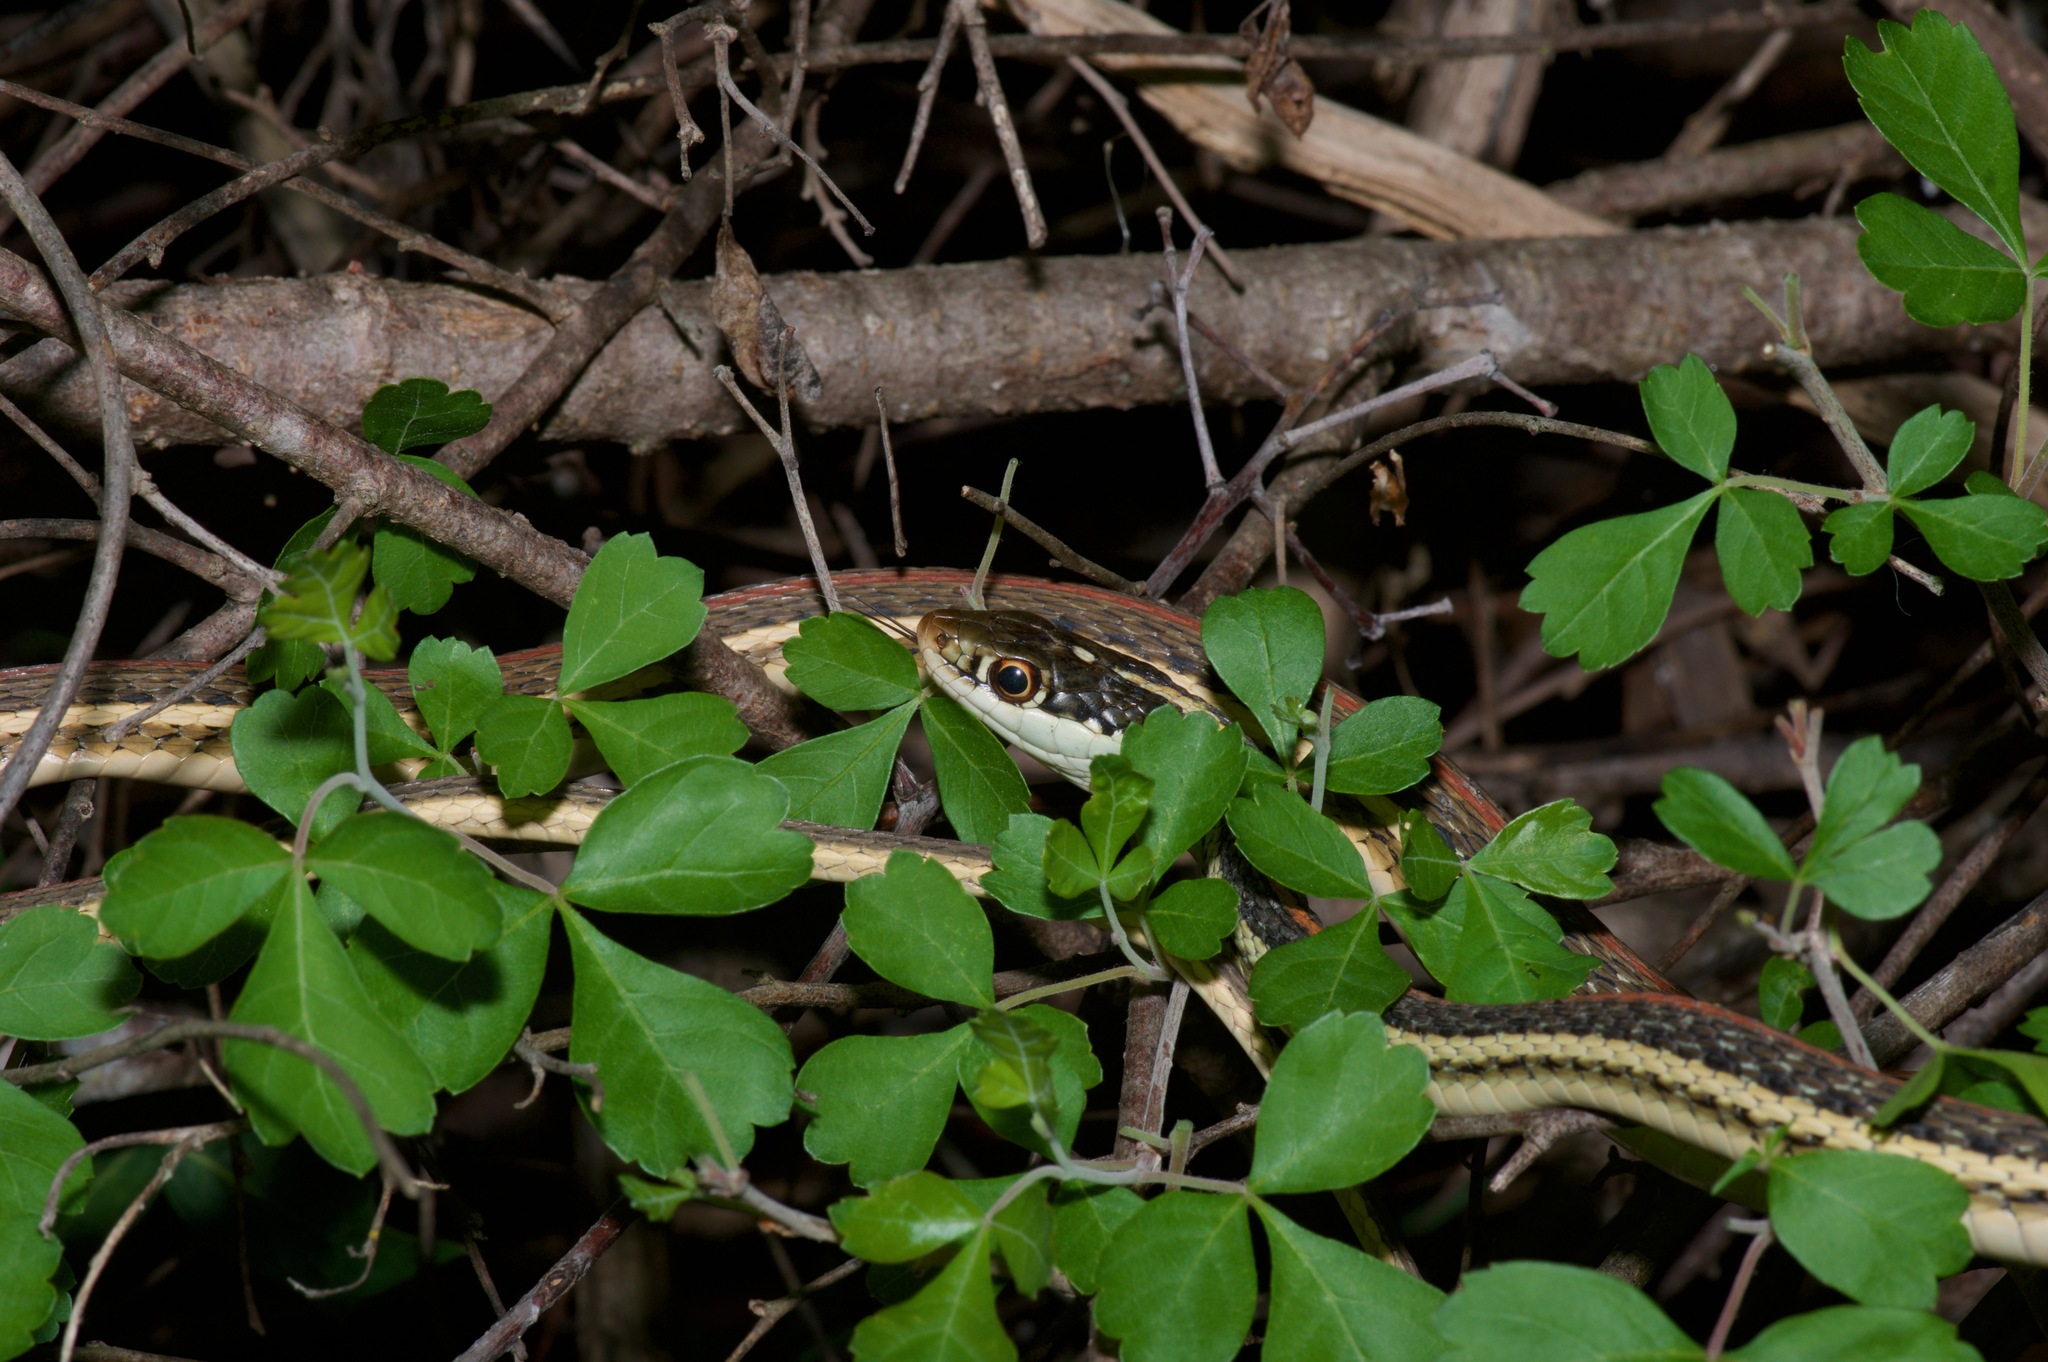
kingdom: Animalia
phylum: Chordata
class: Squamata
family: Colubridae
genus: Thamnophis
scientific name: Thamnophis proximus
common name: Western ribbon snake
